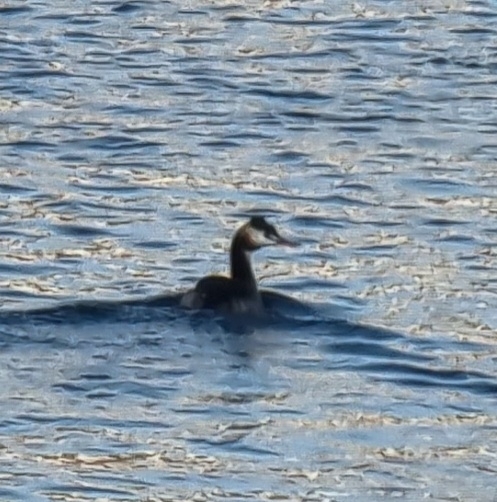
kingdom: Animalia
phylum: Chordata
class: Aves
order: Podicipediformes
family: Podicipedidae
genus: Podiceps
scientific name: Podiceps cristatus
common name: Great crested grebe
